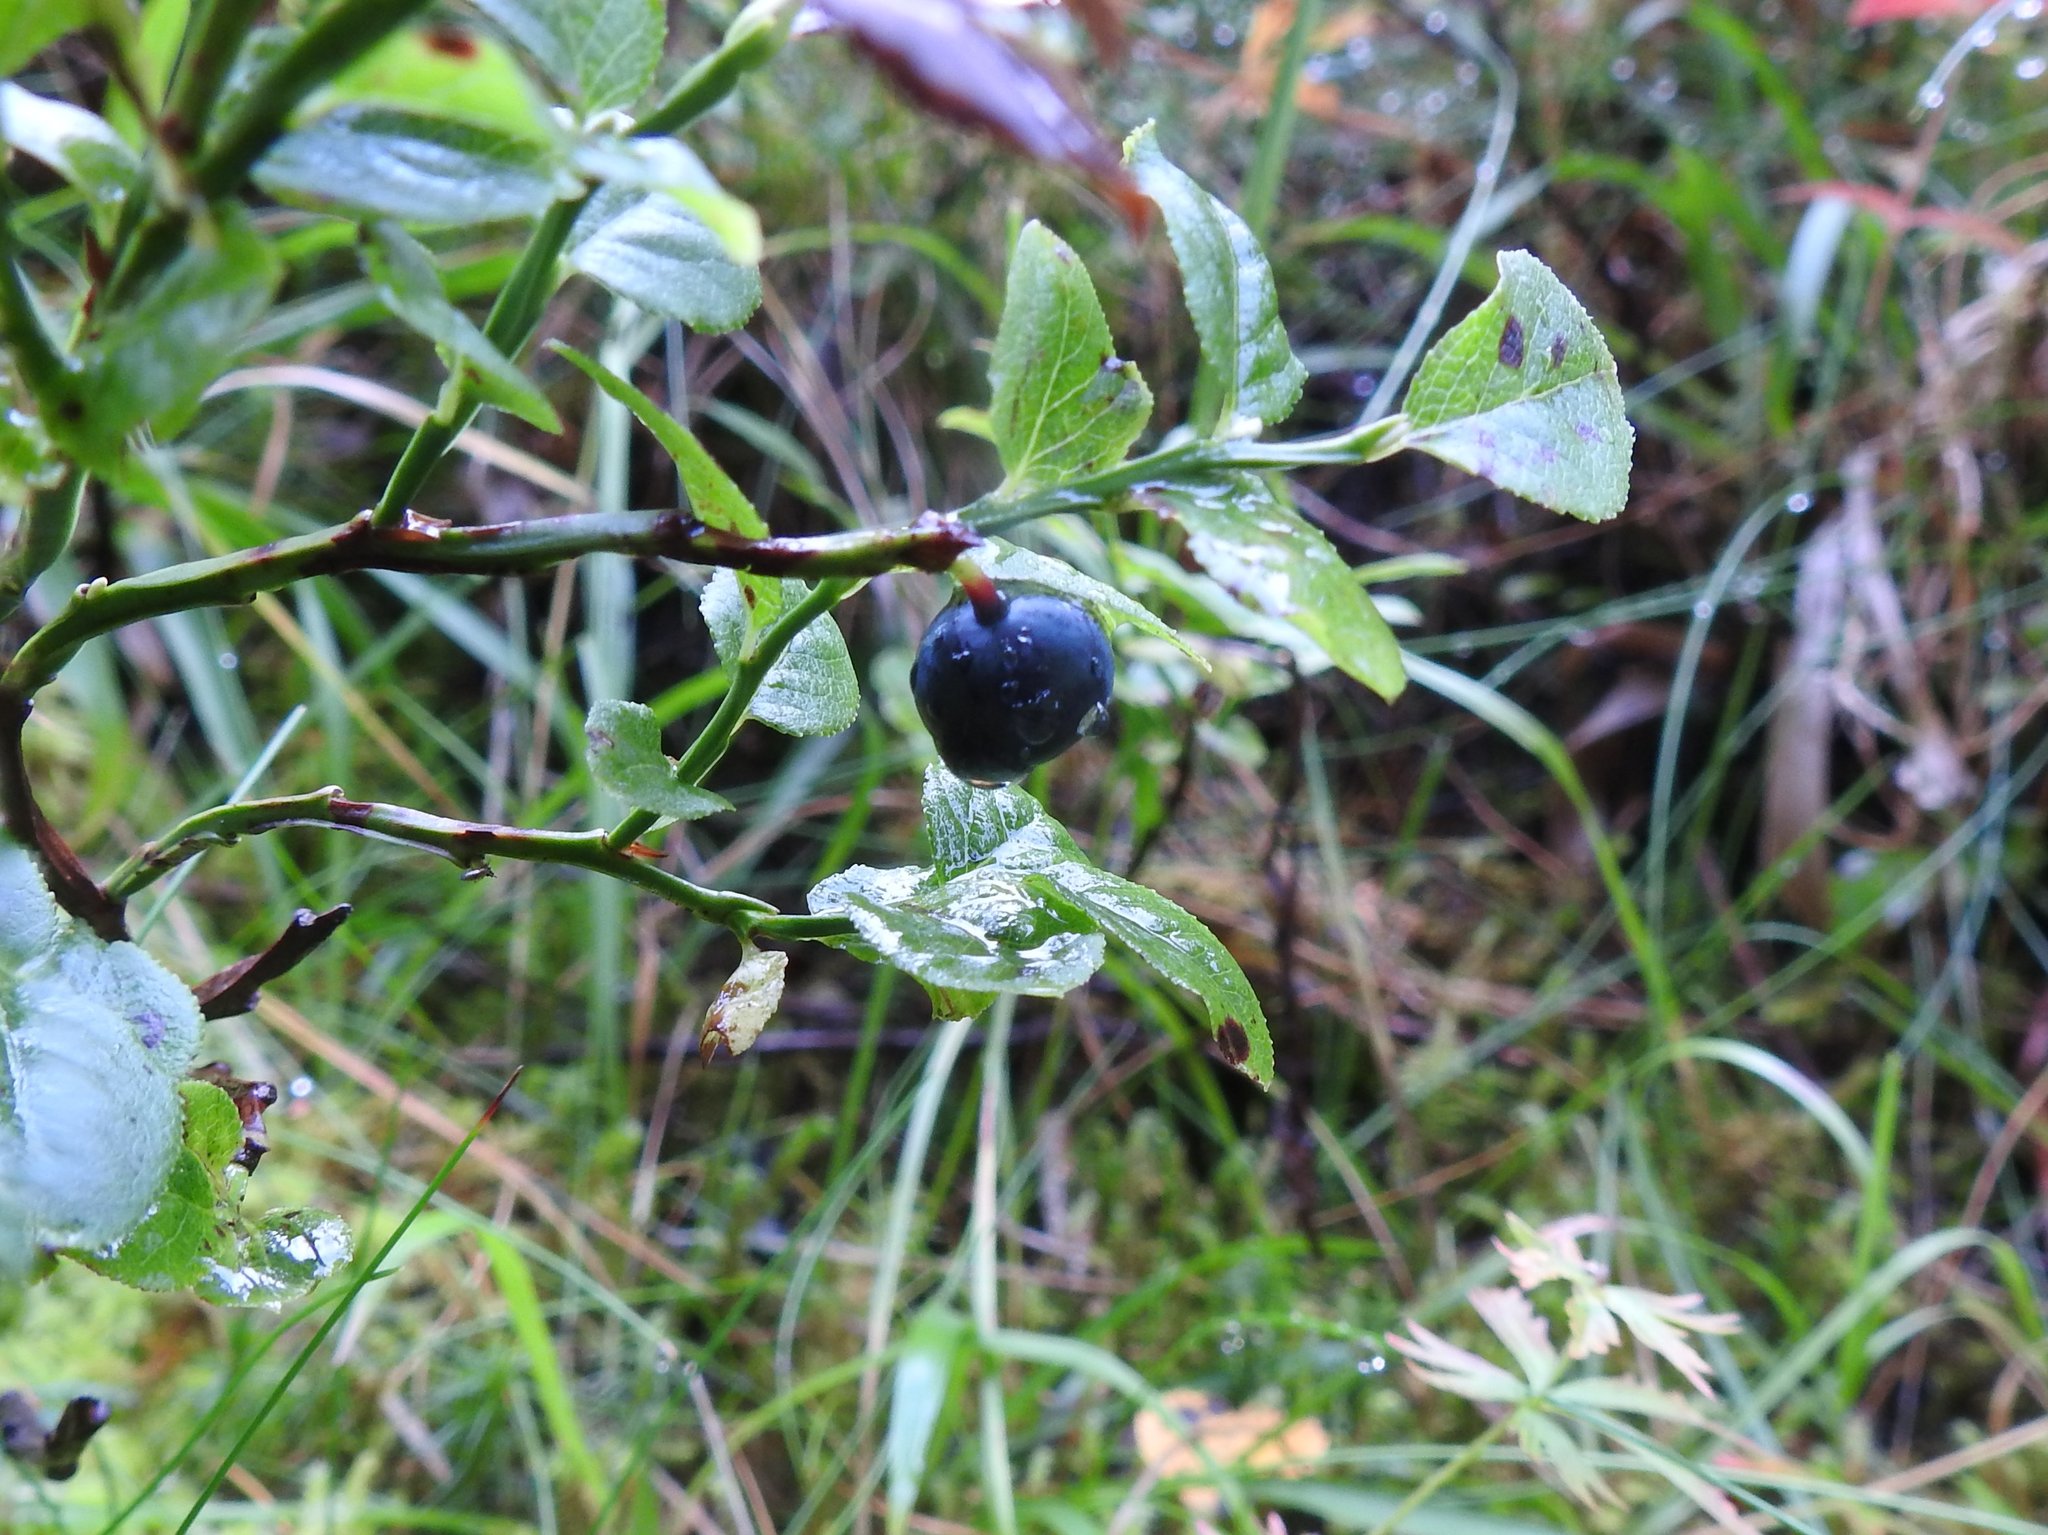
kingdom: Plantae
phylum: Tracheophyta
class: Magnoliopsida
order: Ericales
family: Ericaceae
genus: Vaccinium
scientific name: Vaccinium myrtillus
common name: Bilberry
